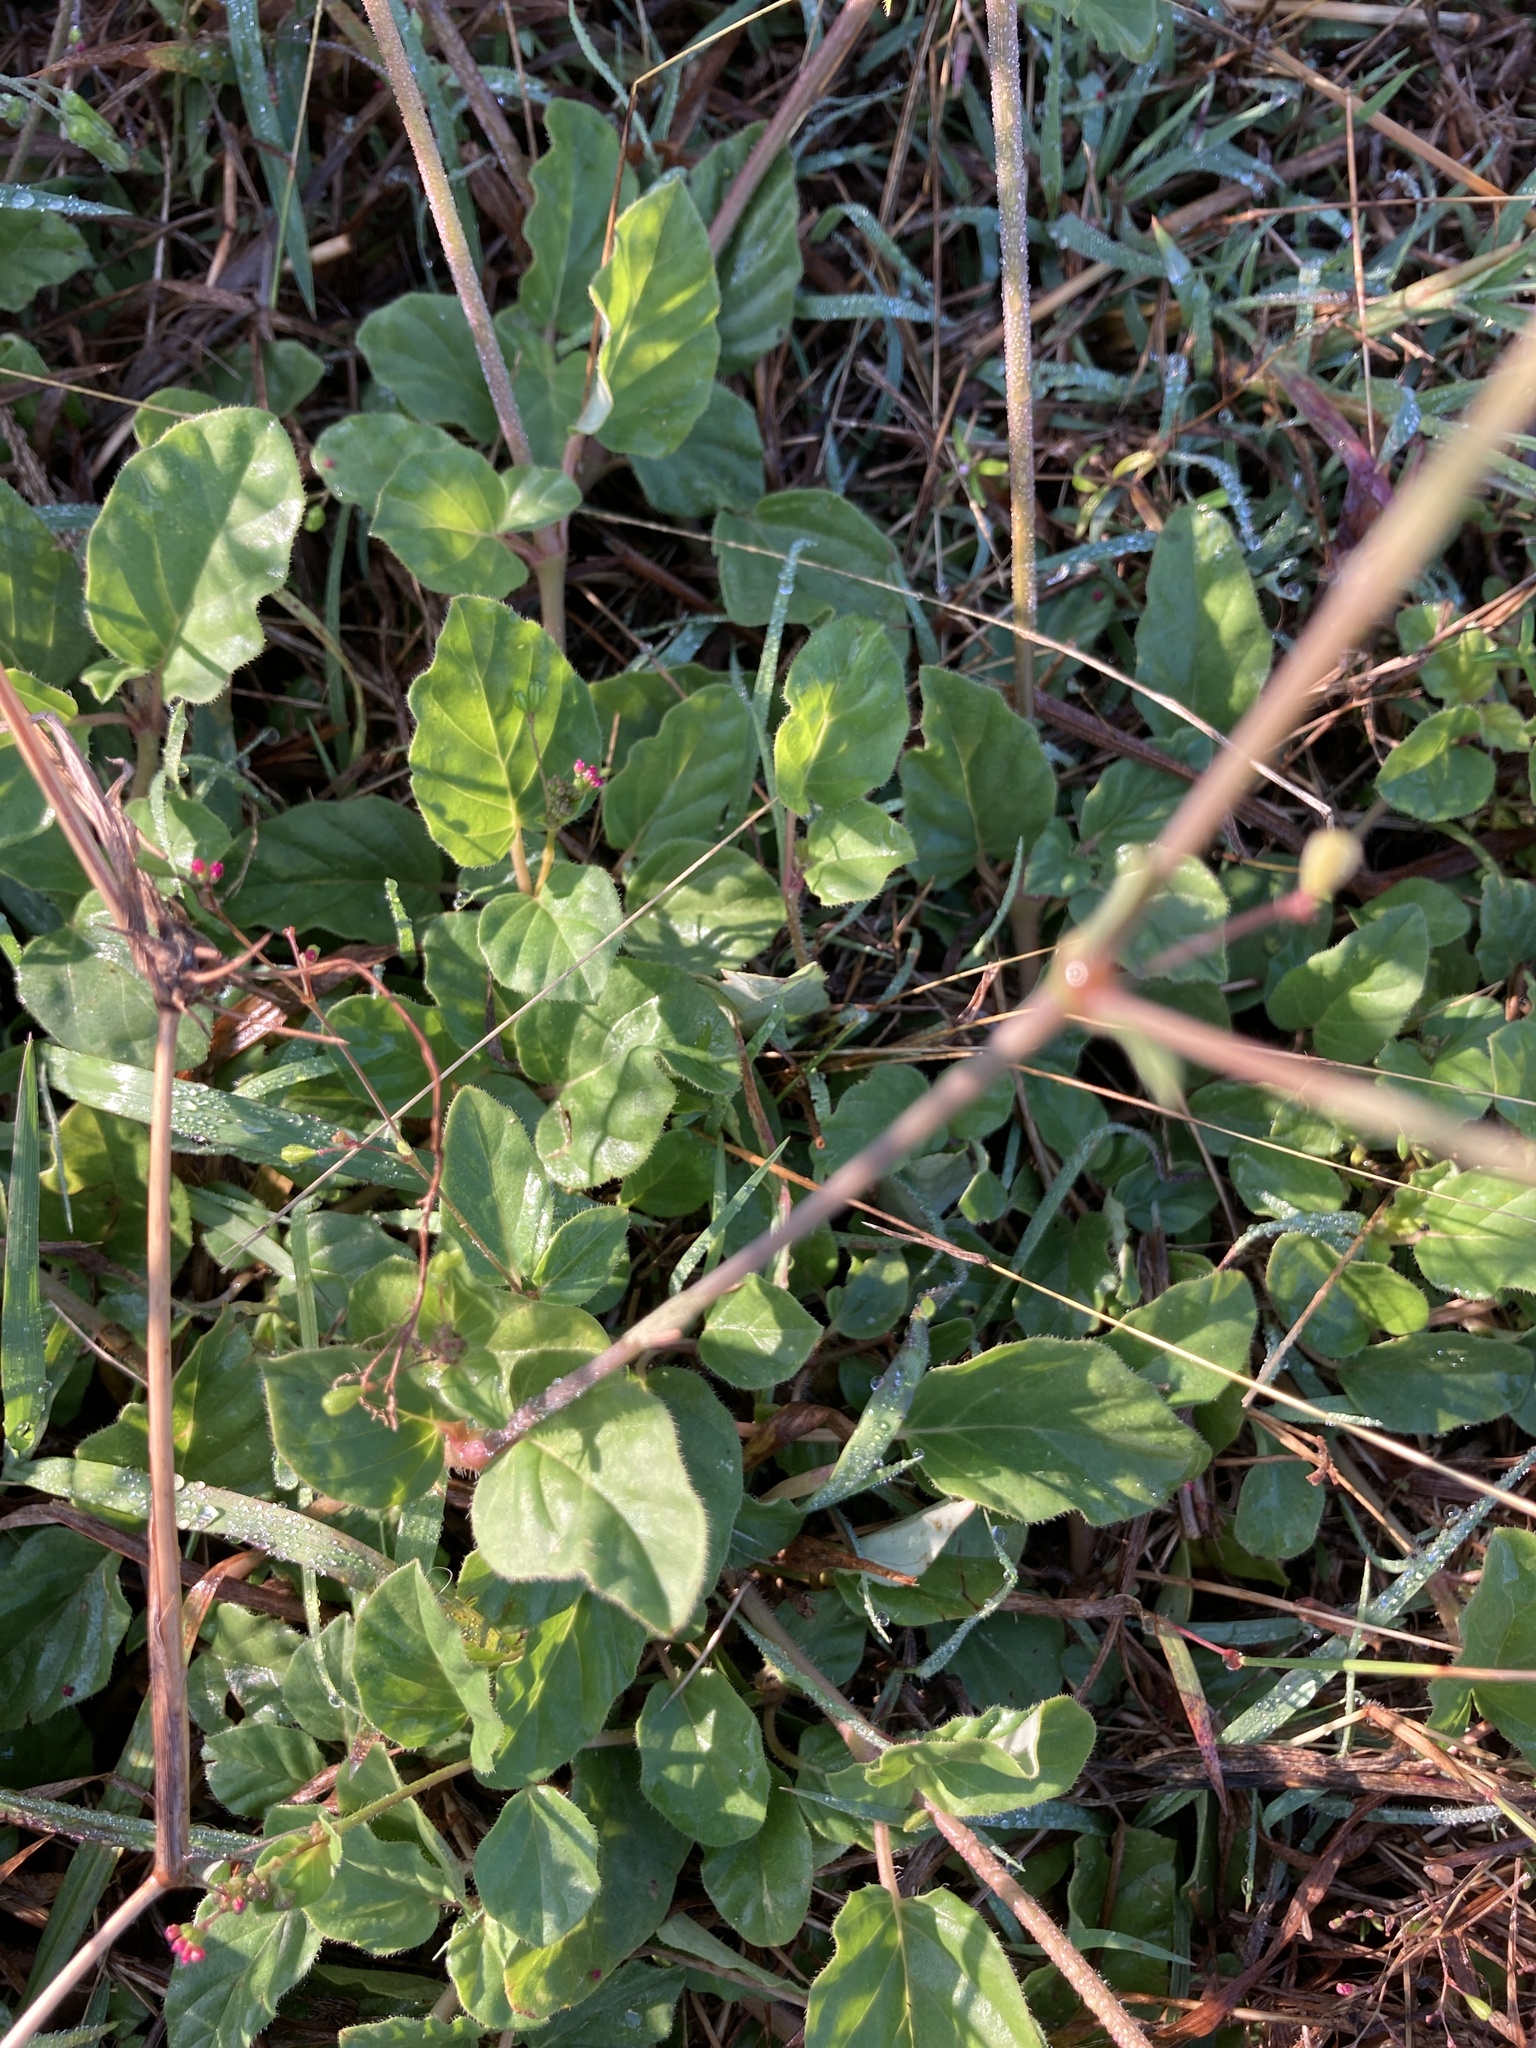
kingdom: Plantae
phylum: Tracheophyta
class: Magnoliopsida
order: Caryophyllales
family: Nyctaginaceae
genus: Boerhavia
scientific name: Boerhavia glabrata
